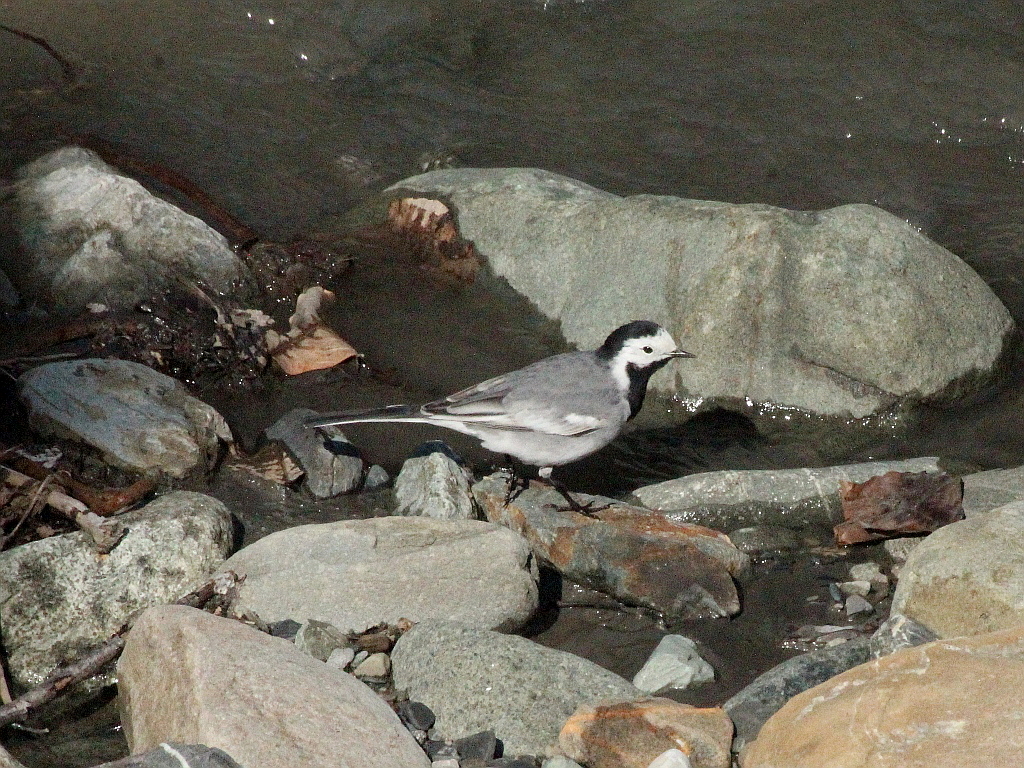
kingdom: Animalia
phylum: Chordata
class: Aves
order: Passeriformes
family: Motacillidae
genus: Motacilla
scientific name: Motacilla alba
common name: White wagtail
